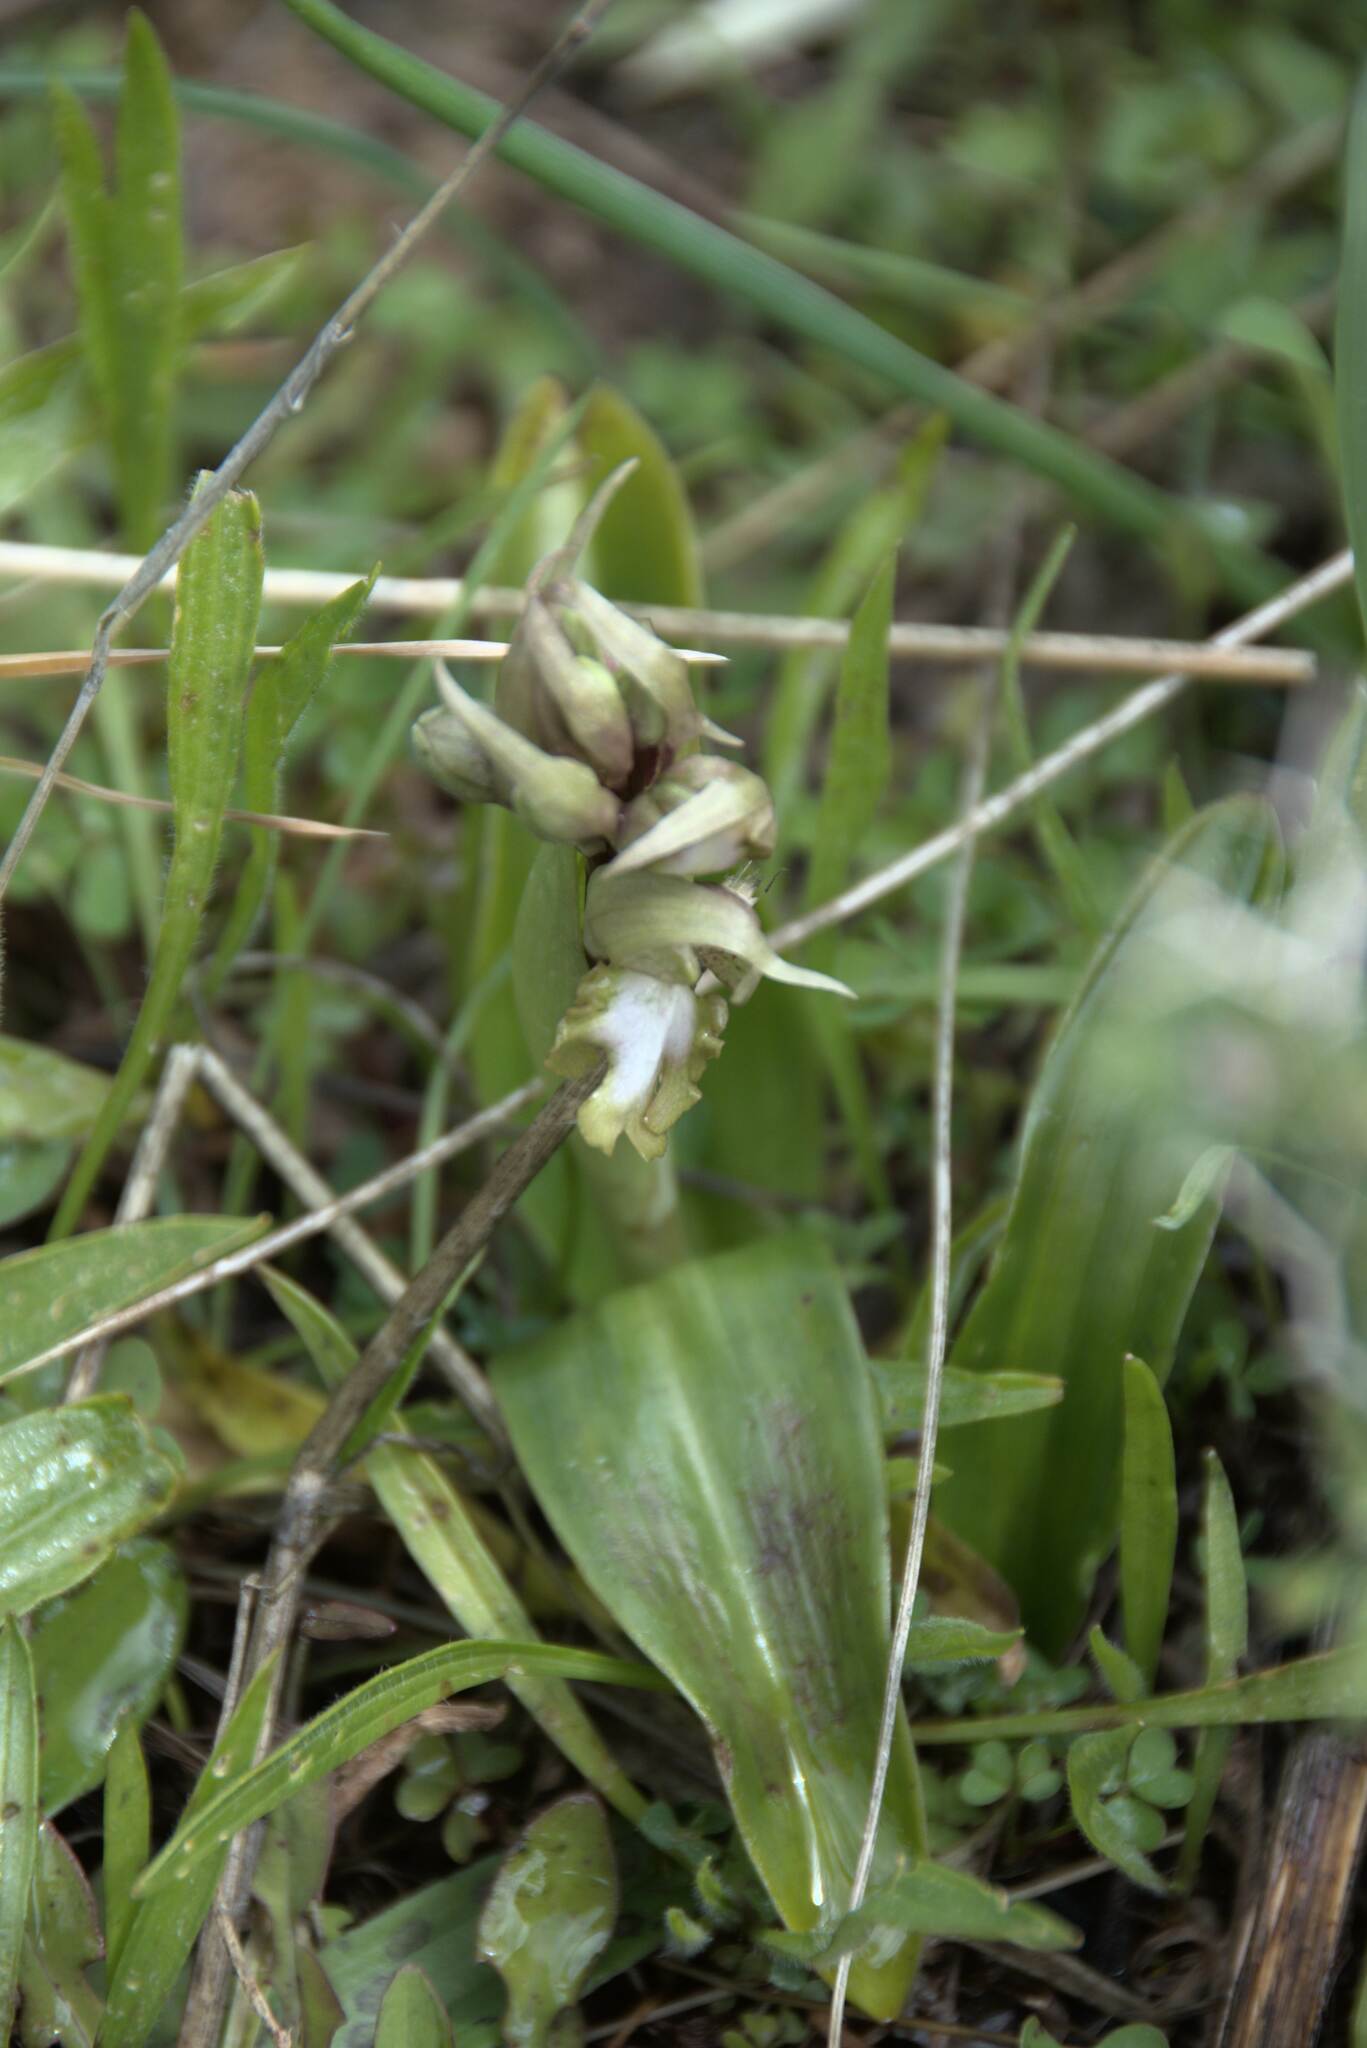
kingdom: Plantae
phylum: Tracheophyta
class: Liliopsida
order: Asparagales
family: Orchidaceae
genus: Himantoglossum
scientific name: Himantoglossum robertianum
